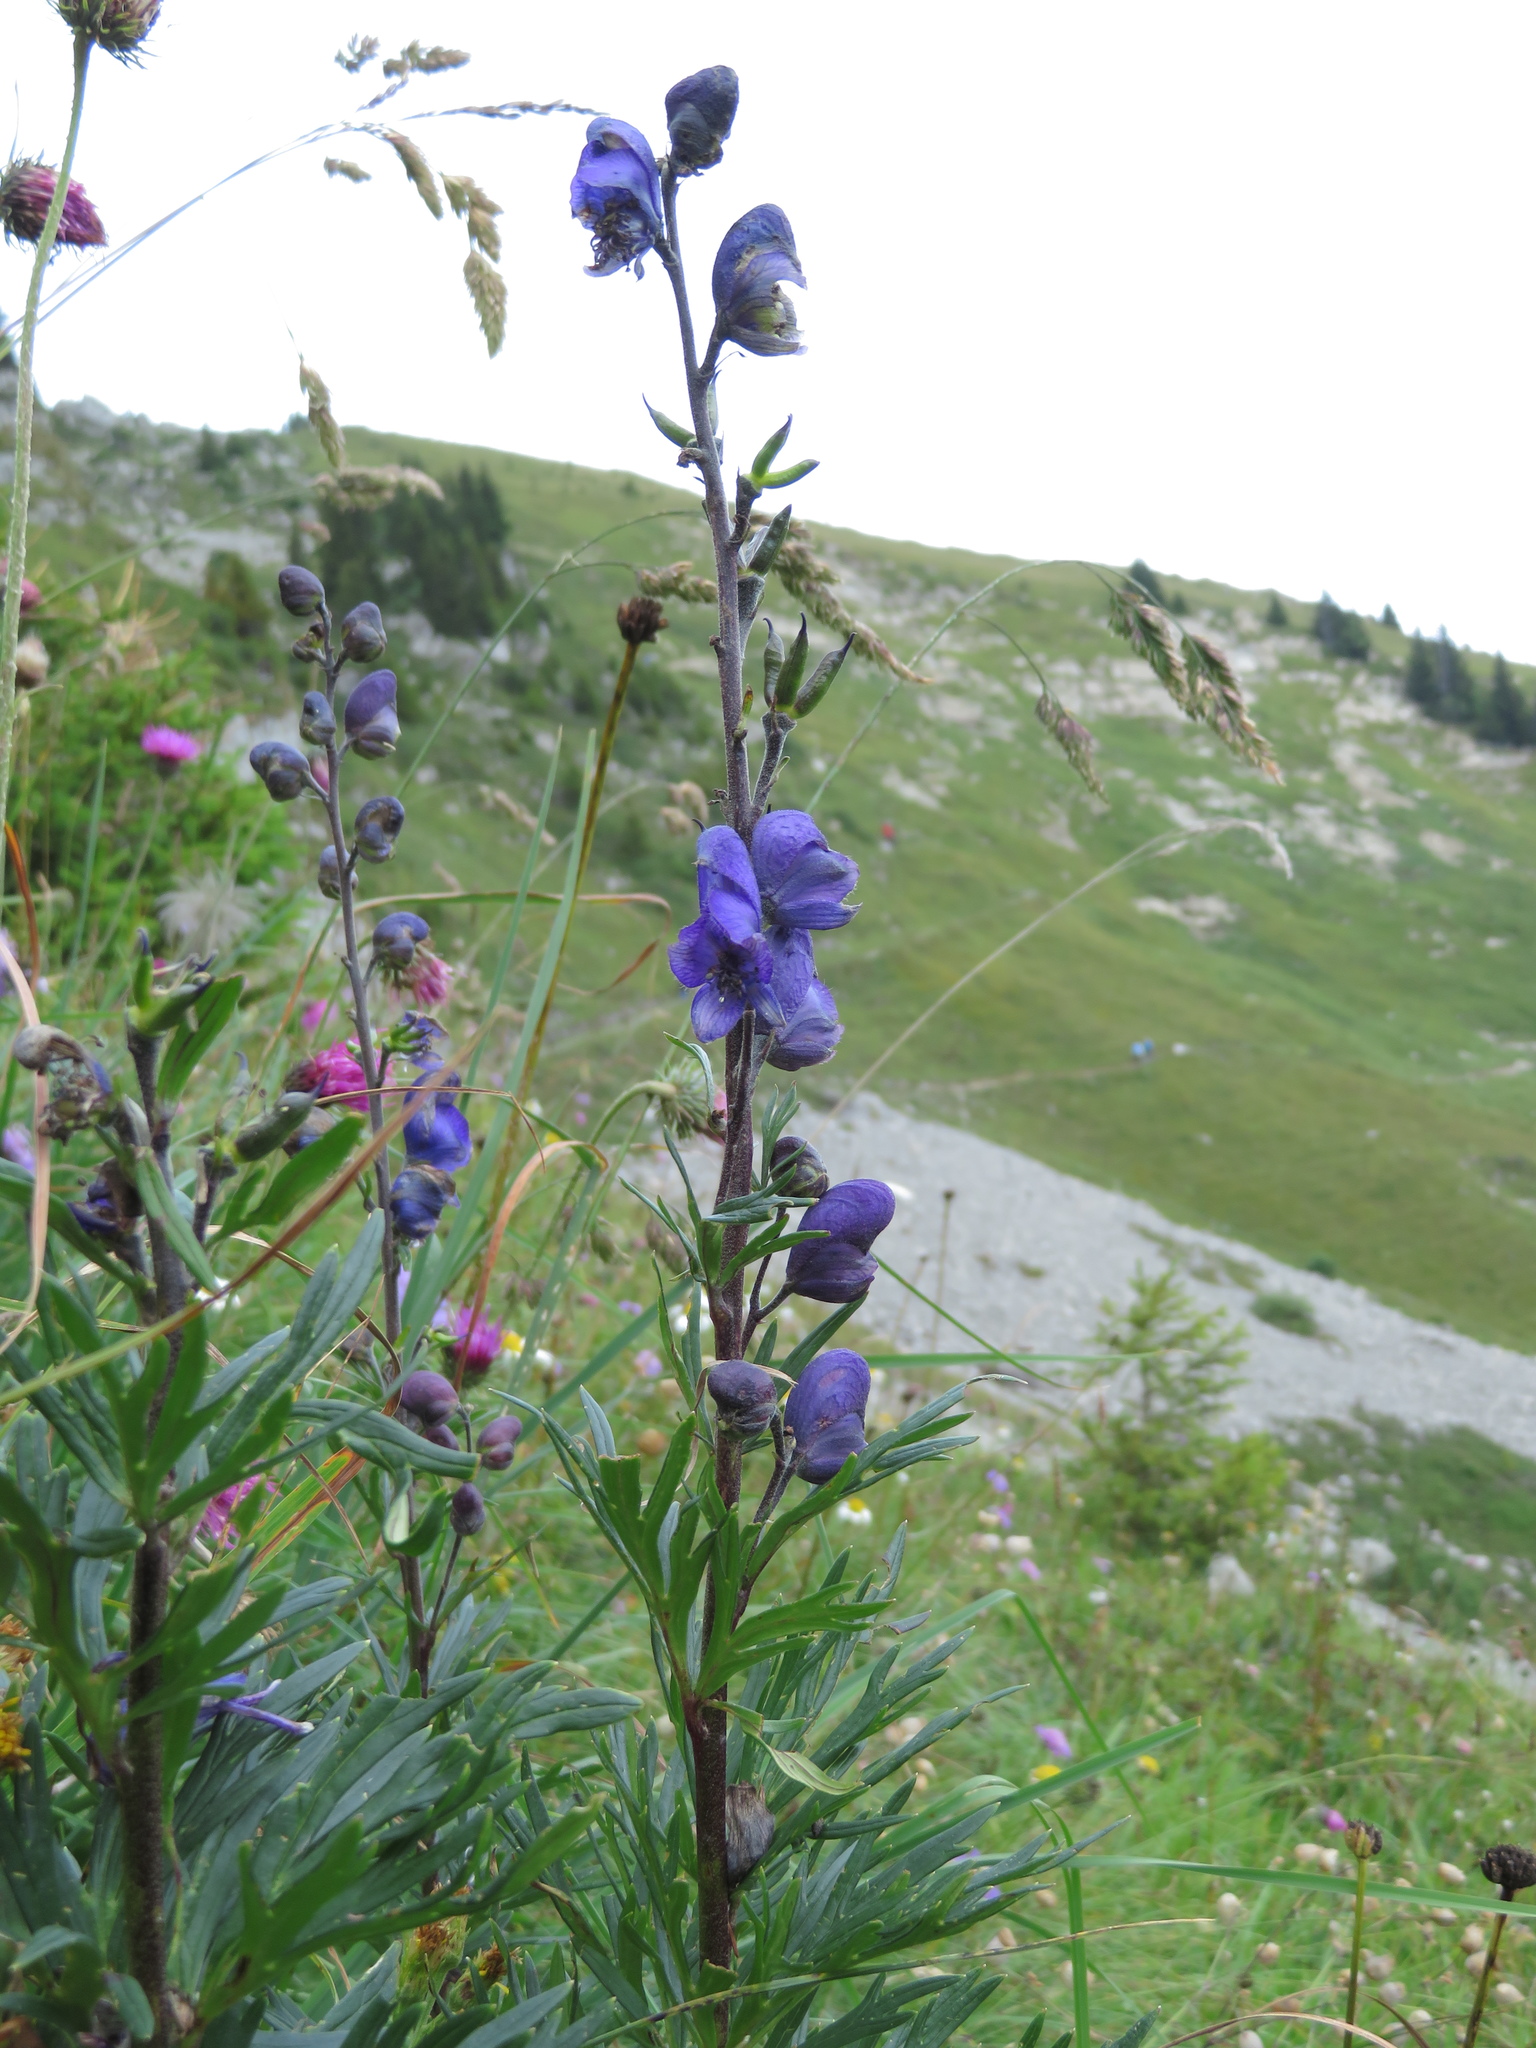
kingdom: Plantae
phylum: Tracheophyta
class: Magnoliopsida
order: Ranunculales
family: Ranunculaceae
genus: Aconitum
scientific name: Aconitum napellus
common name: Garden monkshood
